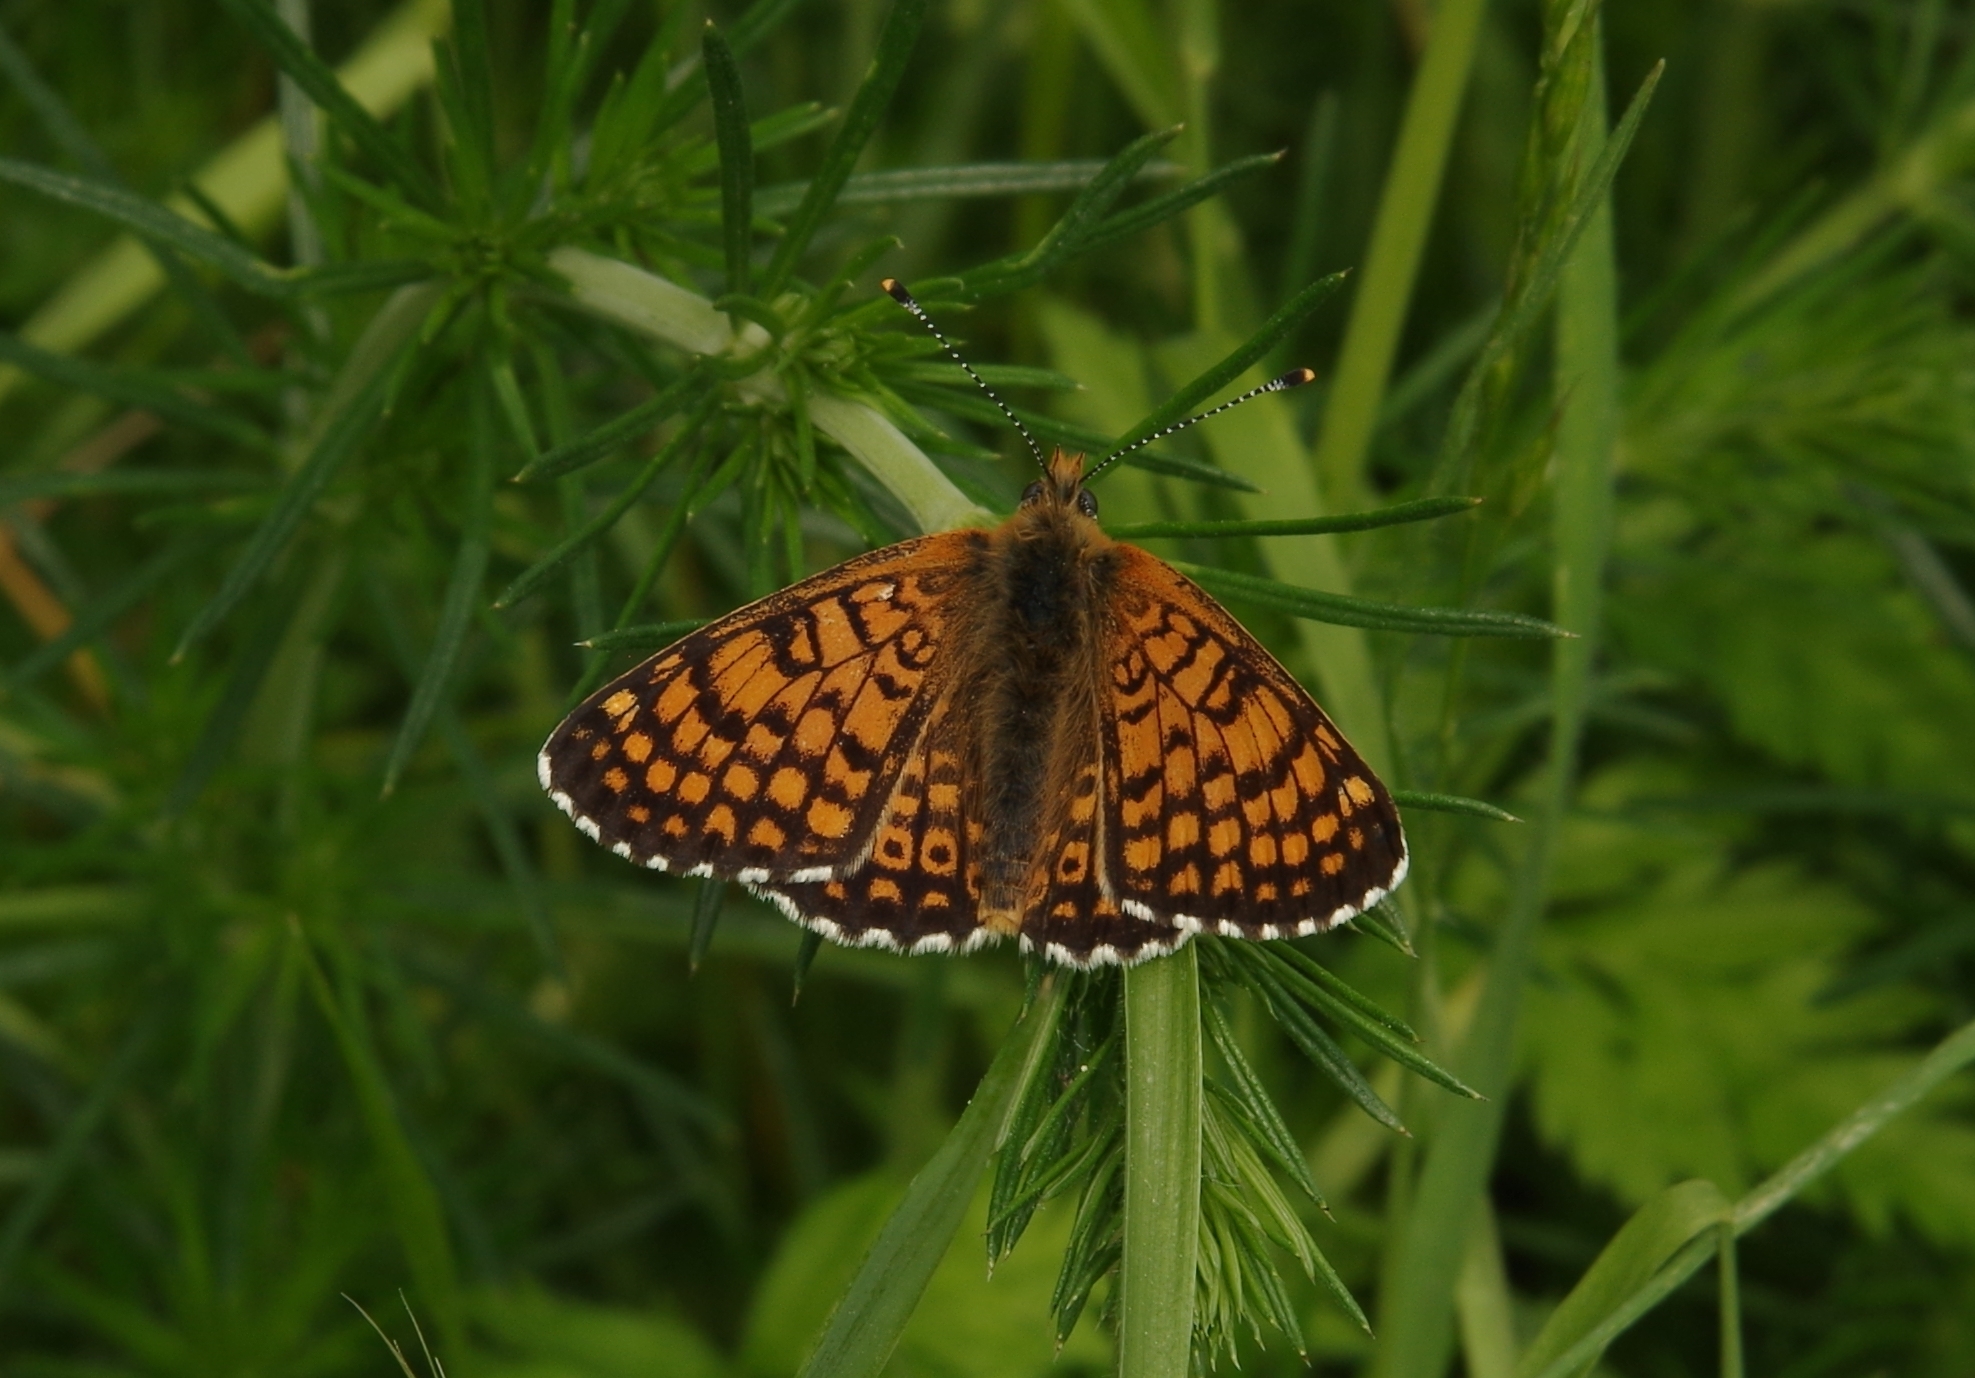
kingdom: Animalia
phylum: Arthropoda
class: Insecta
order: Lepidoptera
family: Nymphalidae
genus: Melitaea
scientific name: Melitaea cinxia
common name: Glanville fritillary
